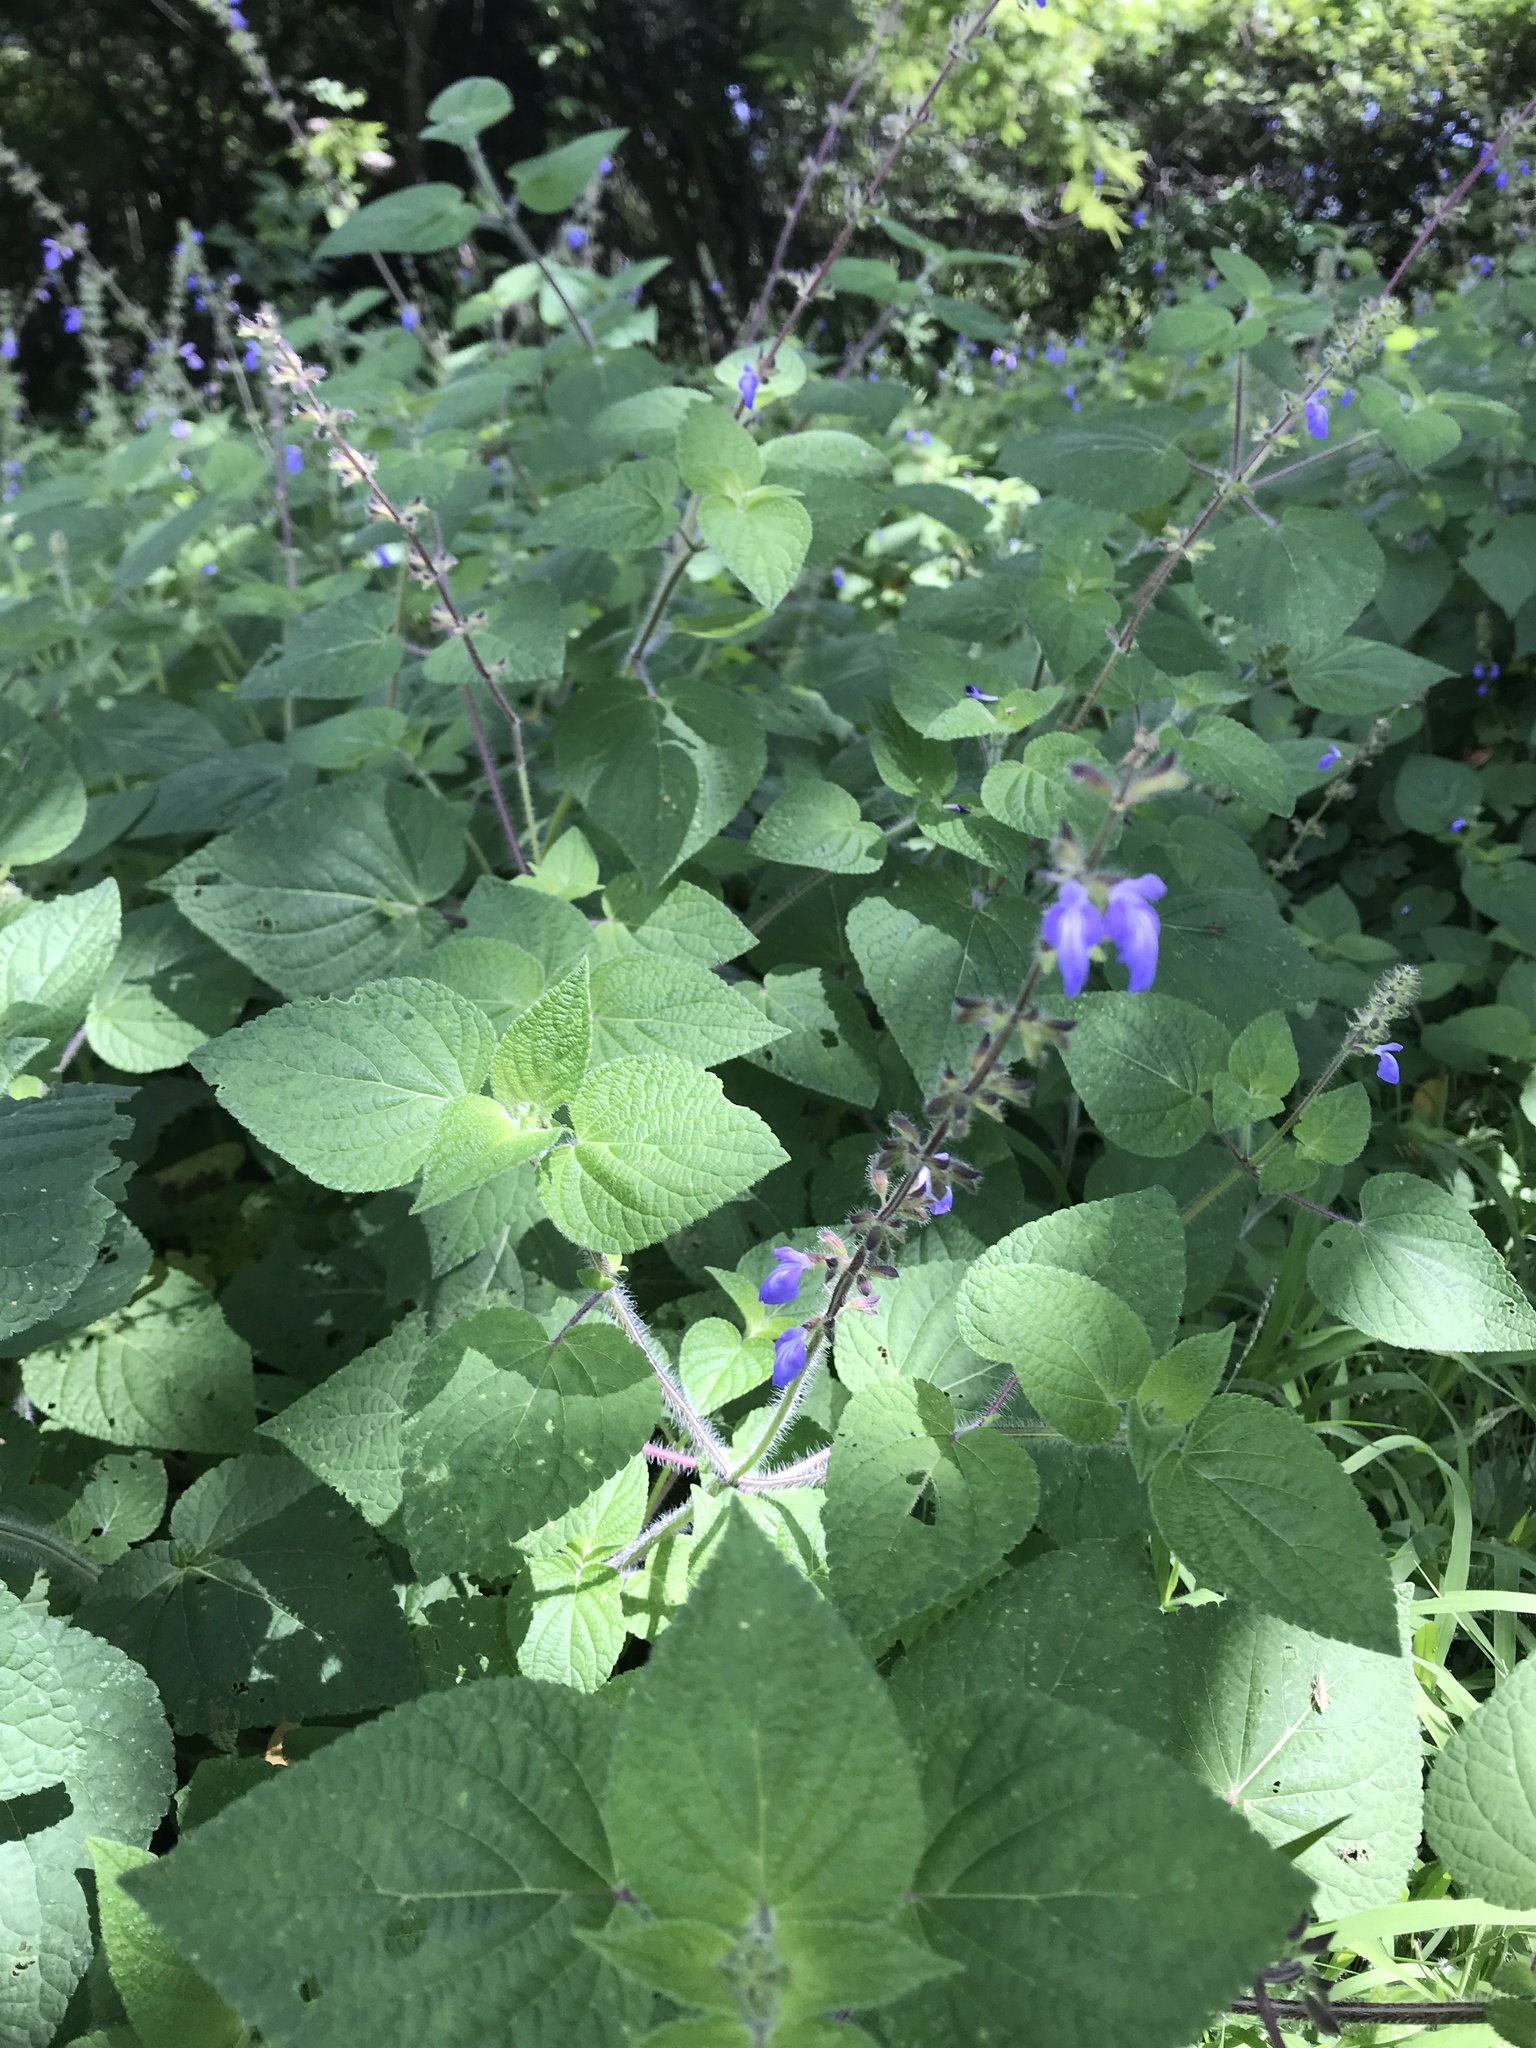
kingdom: Plantae
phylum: Tracheophyta
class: Magnoliopsida
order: Lamiales
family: Lamiaceae
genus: Salvia
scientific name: Salvia circinnata
